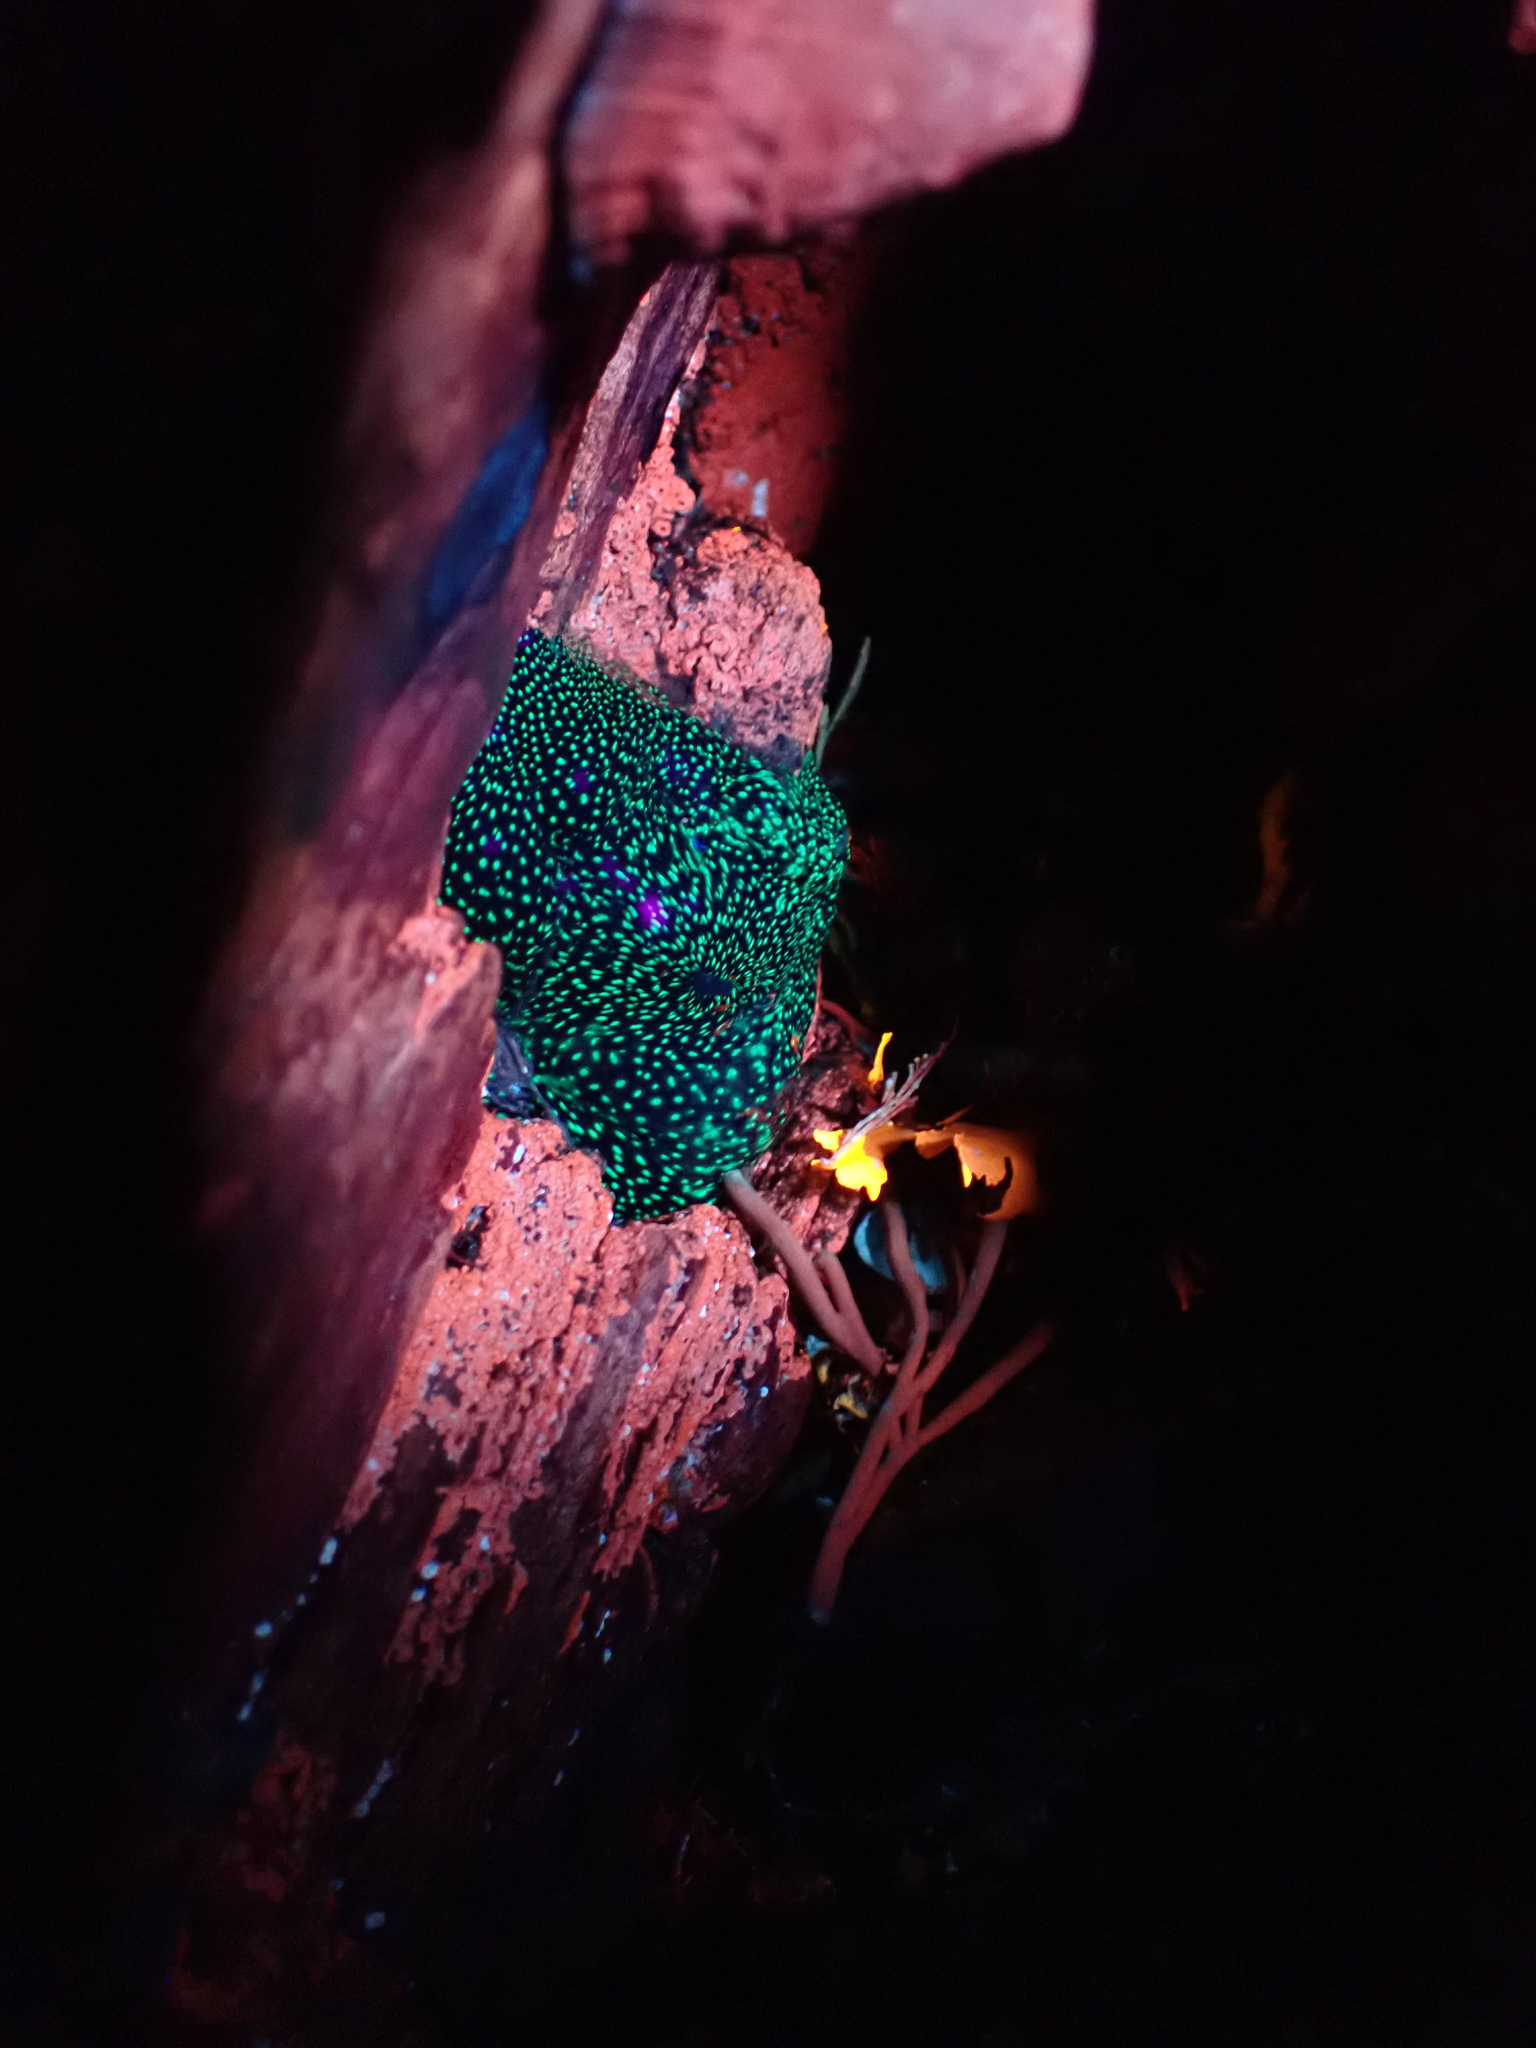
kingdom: Animalia
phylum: Cnidaria
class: Anthozoa
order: Actiniaria
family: Actiniidae
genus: Actinia
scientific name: Actinia fragacea
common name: Strawberry anemone
